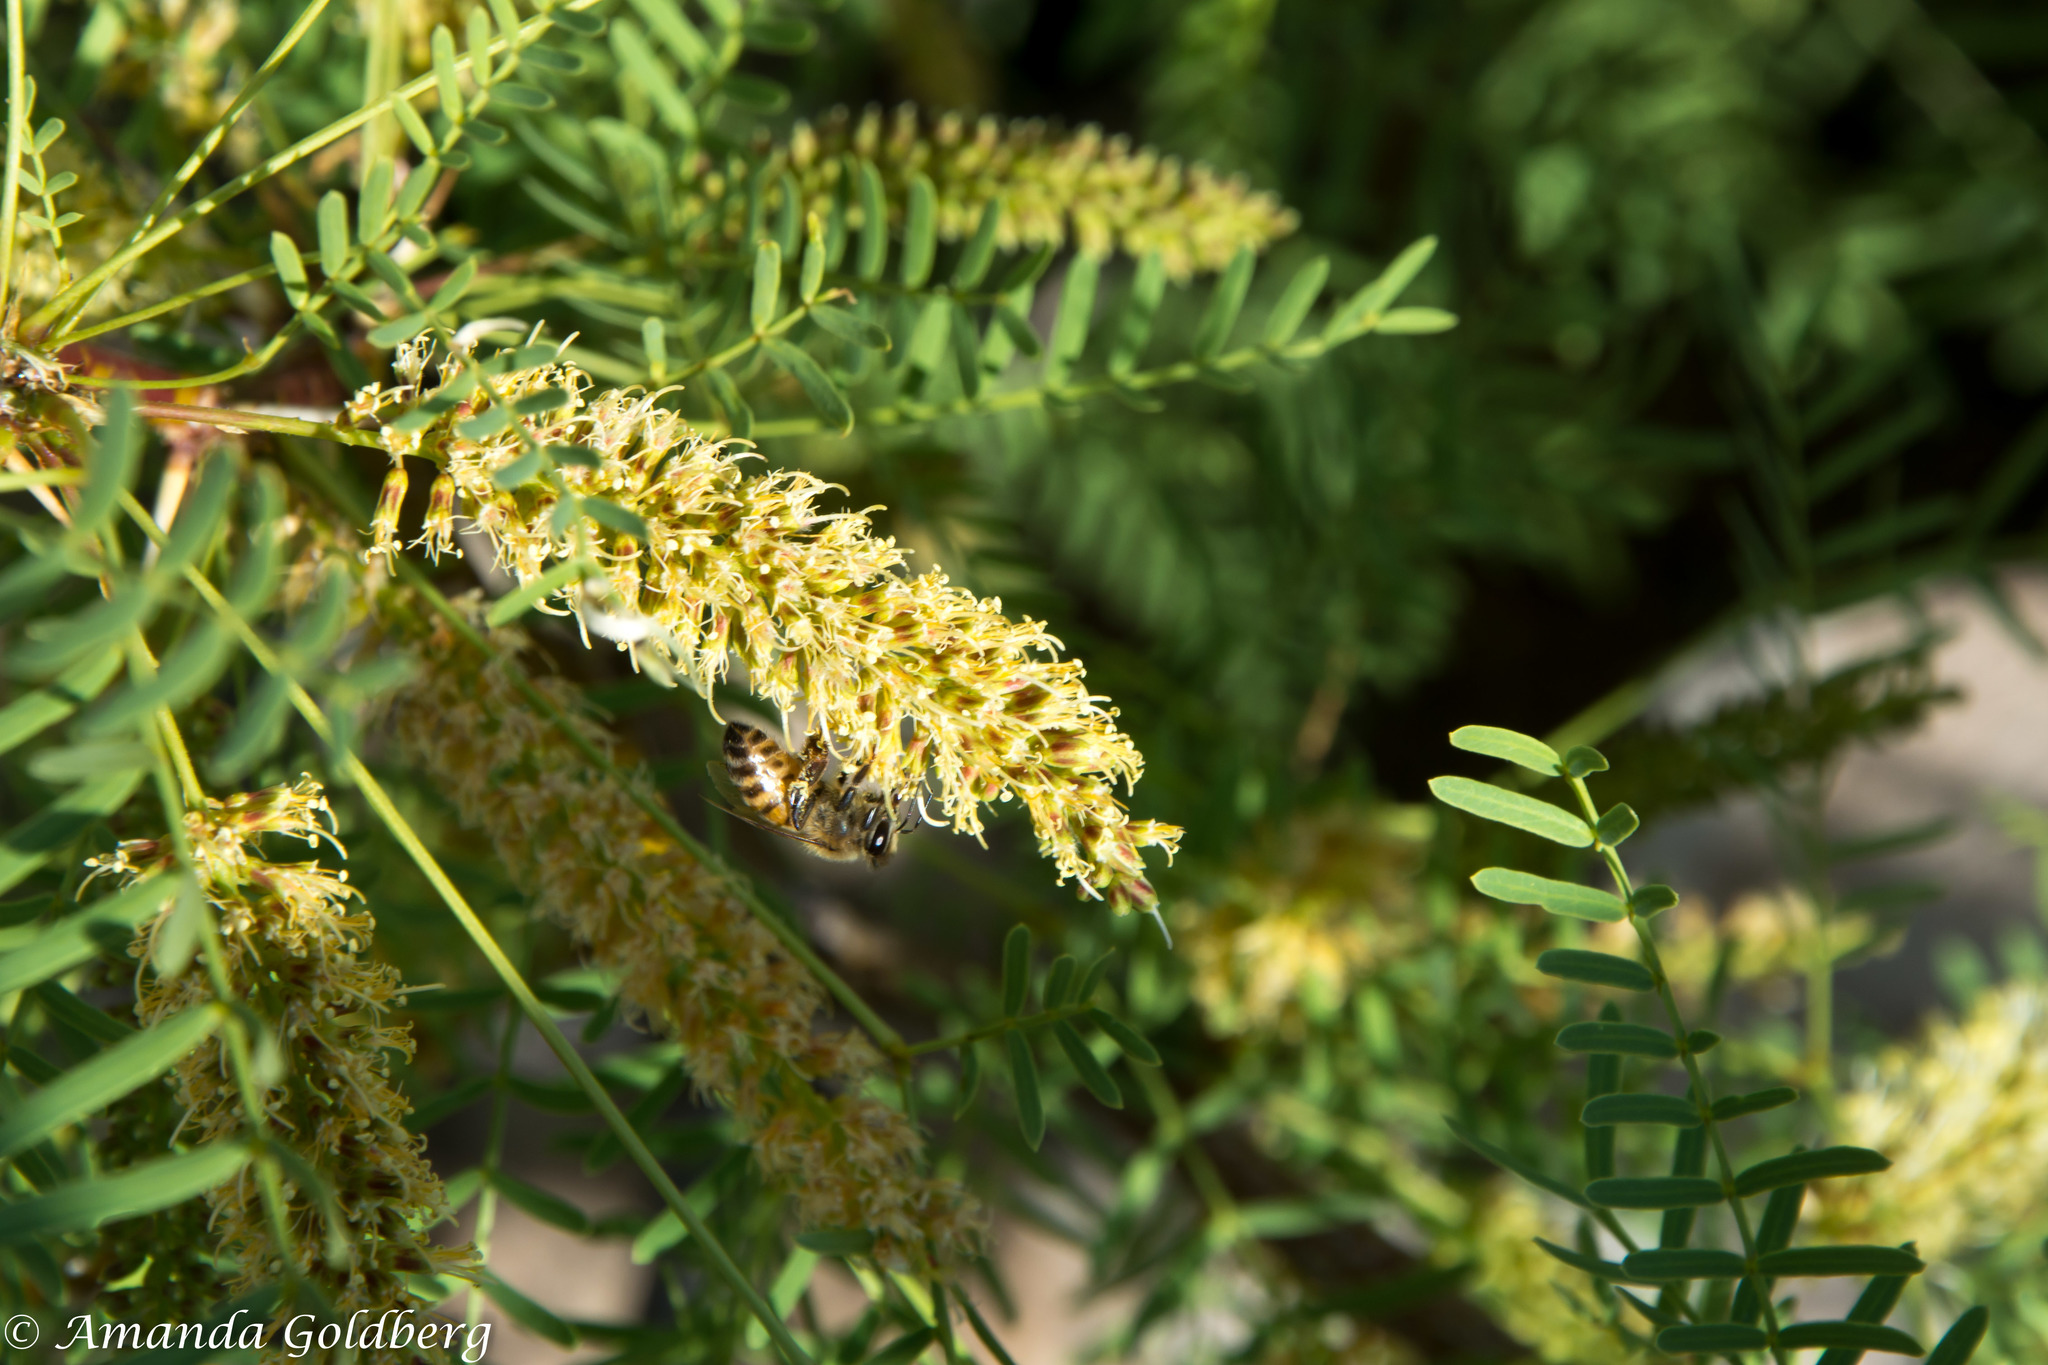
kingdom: Animalia
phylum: Arthropoda
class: Insecta
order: Hymenoptera
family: Apidae
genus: Apis
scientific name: Apis mellifera
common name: Honey bee
